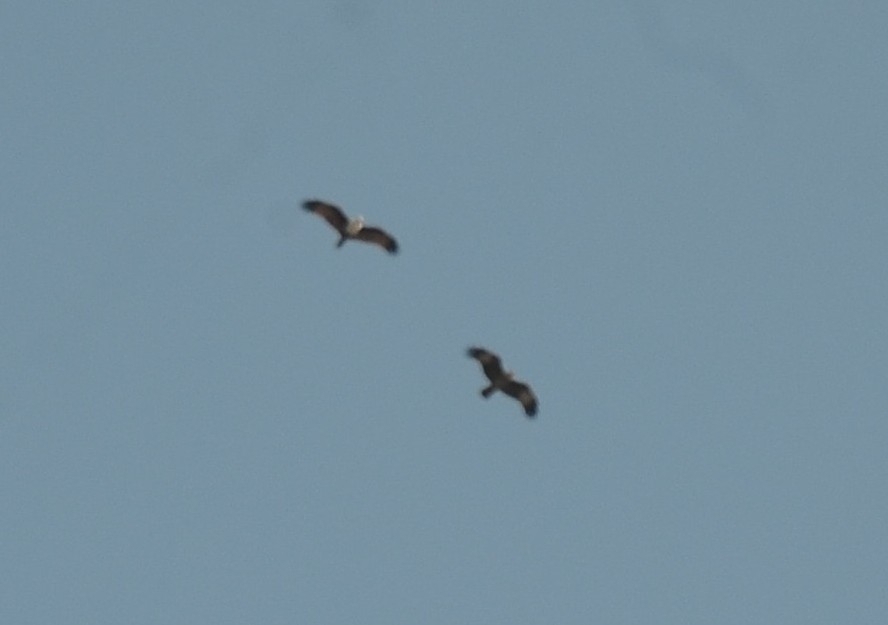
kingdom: Animalia
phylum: Chordata
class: Aves
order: Accipitriformes
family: Accipitridae
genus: Haliastur
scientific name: Haliastur indus
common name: Brahminy kite
